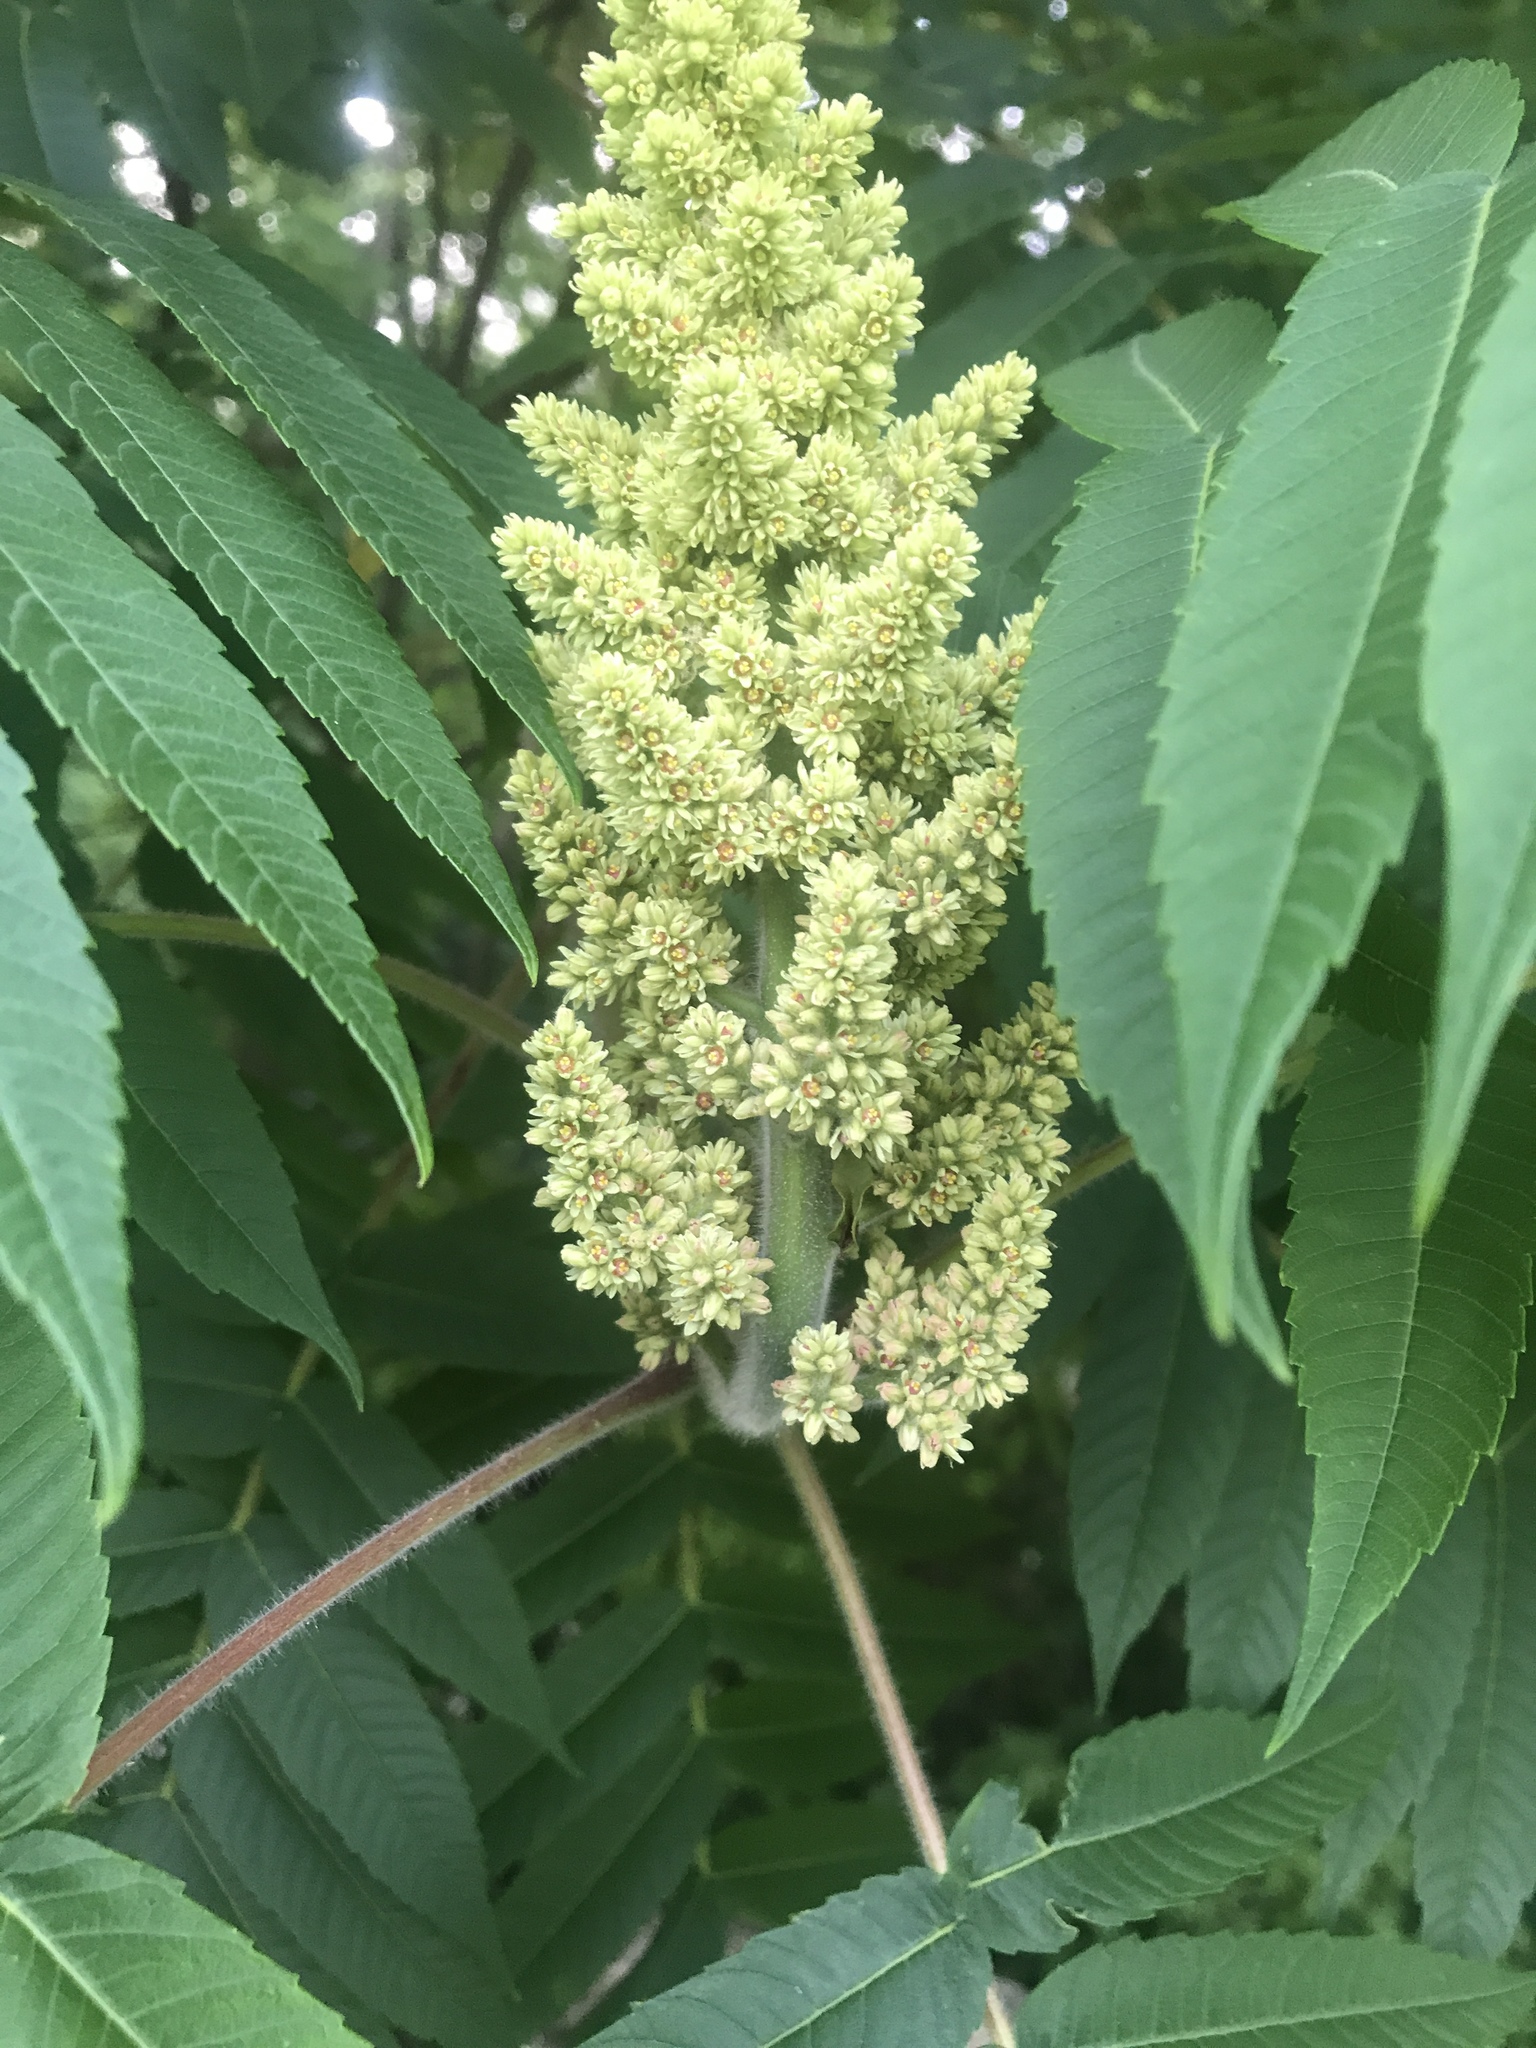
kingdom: Plantae
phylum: Tracheophyta
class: Magnoliopsida
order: Sapindales
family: Anacardiaceae
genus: Rhus
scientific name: Rhus typhina
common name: Staghorn sumac
